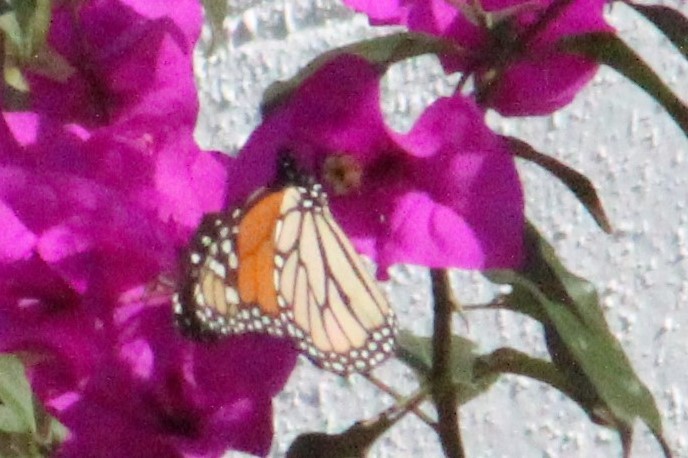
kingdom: Animalia
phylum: Arthropoda
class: Insecta
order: Lepidoptera
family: Nymphalidae
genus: Danaus
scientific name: Danaus plexippus
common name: Monarch
